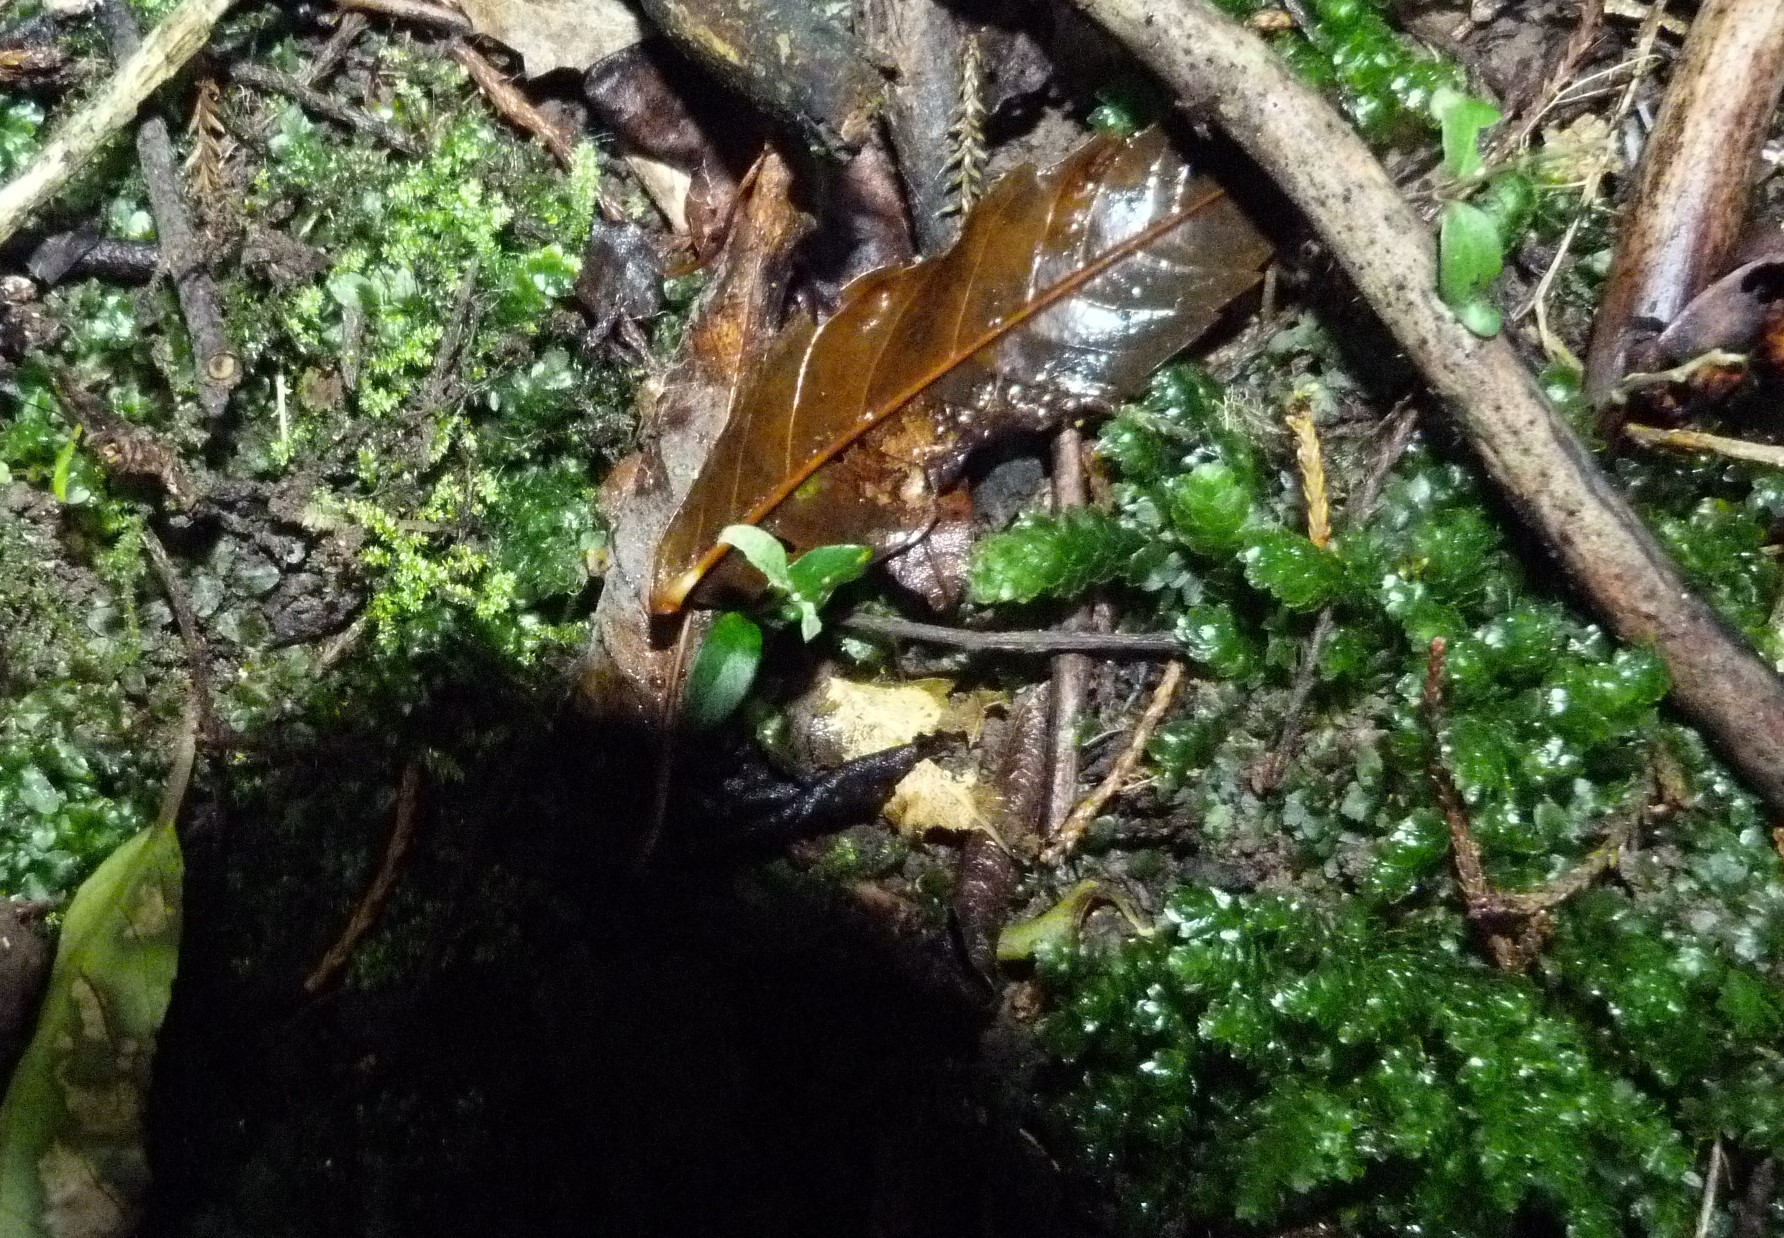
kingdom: Plantae
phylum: Bryophyta
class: Bryopsida
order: Hookeriales
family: Daltoniaceae
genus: Achrophyllum
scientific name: Achrophyllum dentatum
